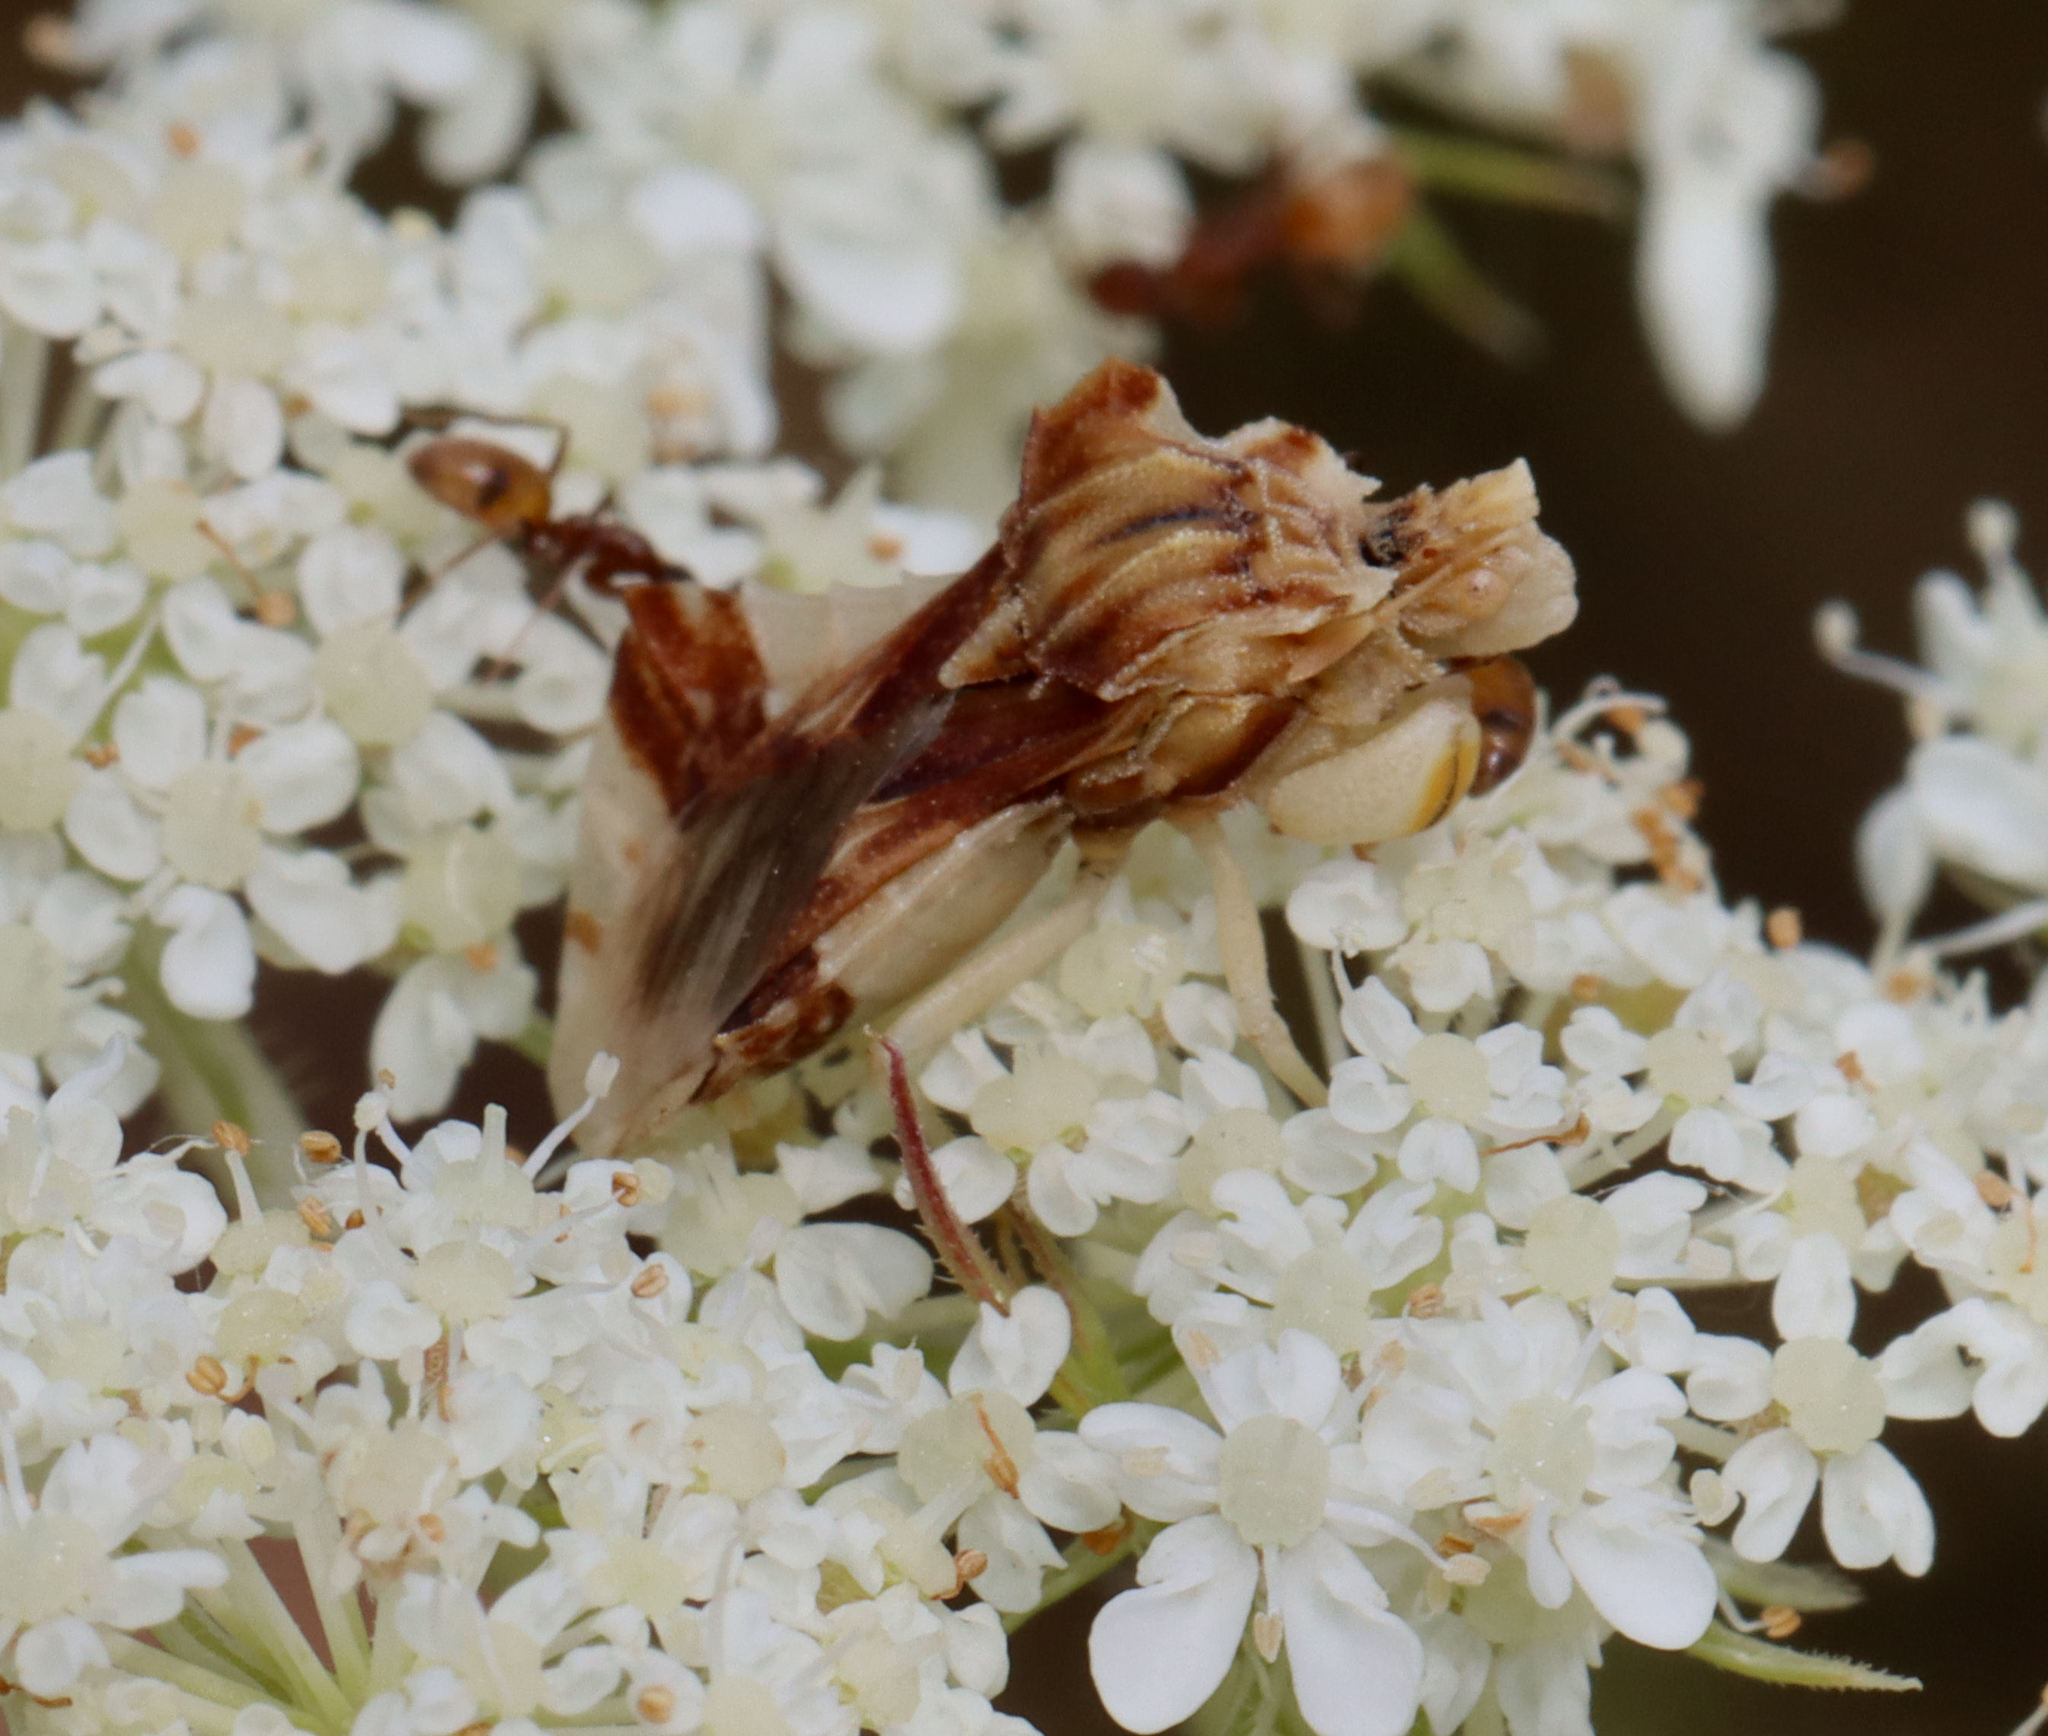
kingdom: Animalia
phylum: Arthropoda
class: Insecta
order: Hemiptera
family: Reduviidae
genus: Phymata
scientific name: Phymata fasciata
